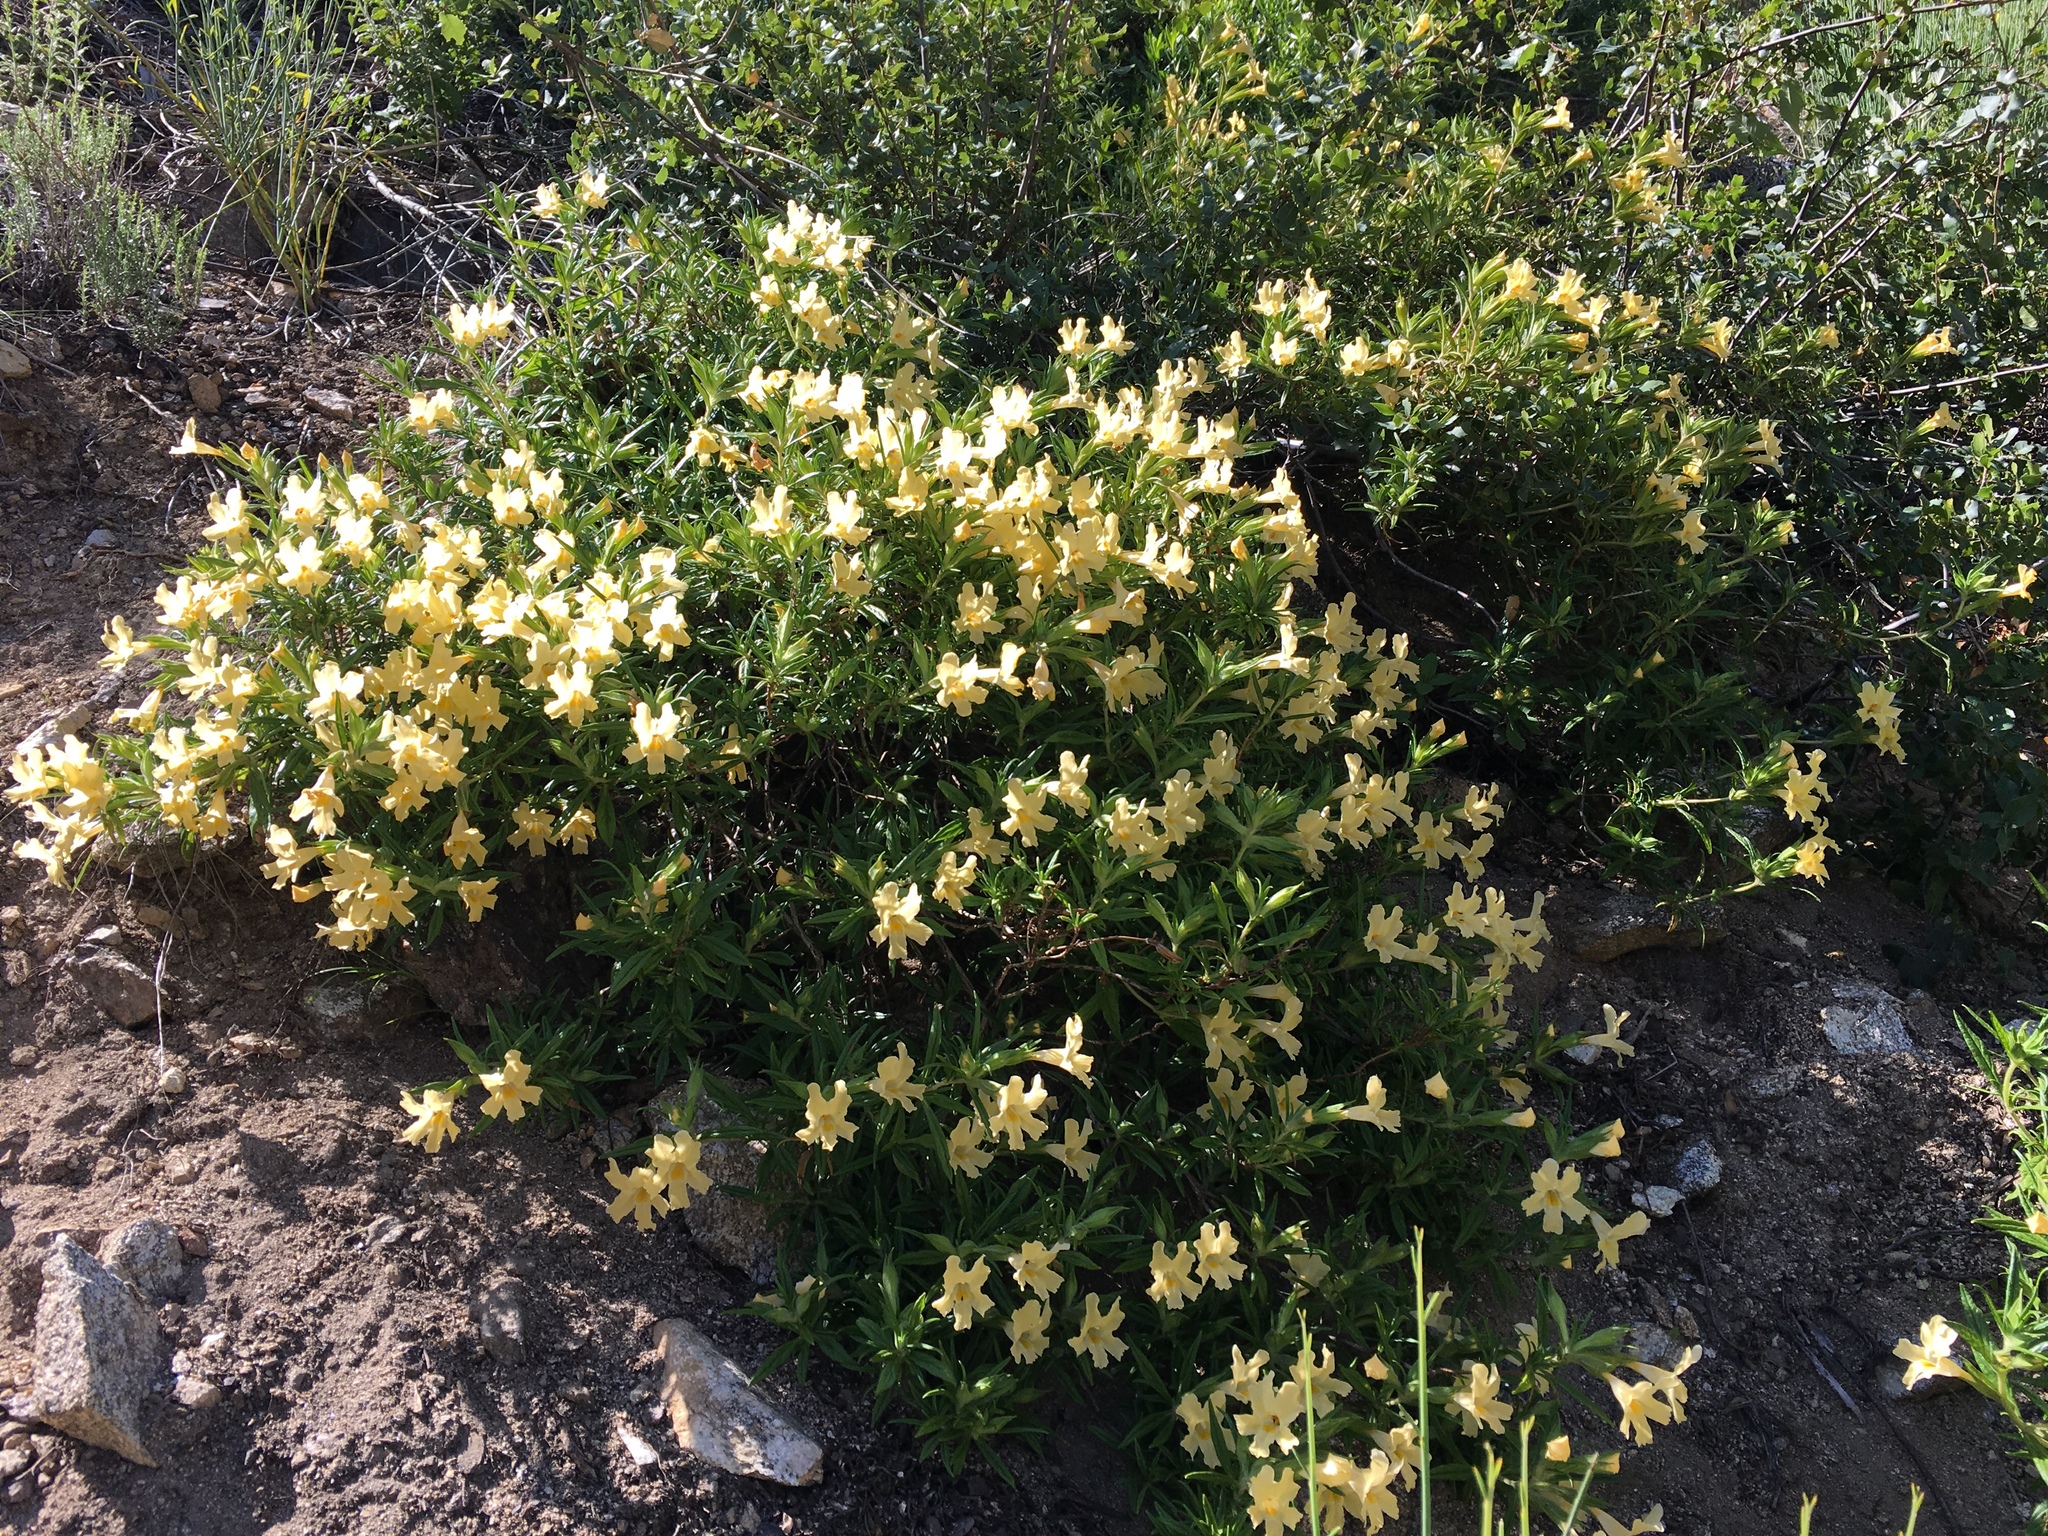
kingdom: Plantae
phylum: Tracheophyta
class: Magnoliopsida
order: Lamiales
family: Phrymaceae
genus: Diplacus
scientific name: Diplacus longiflorus
